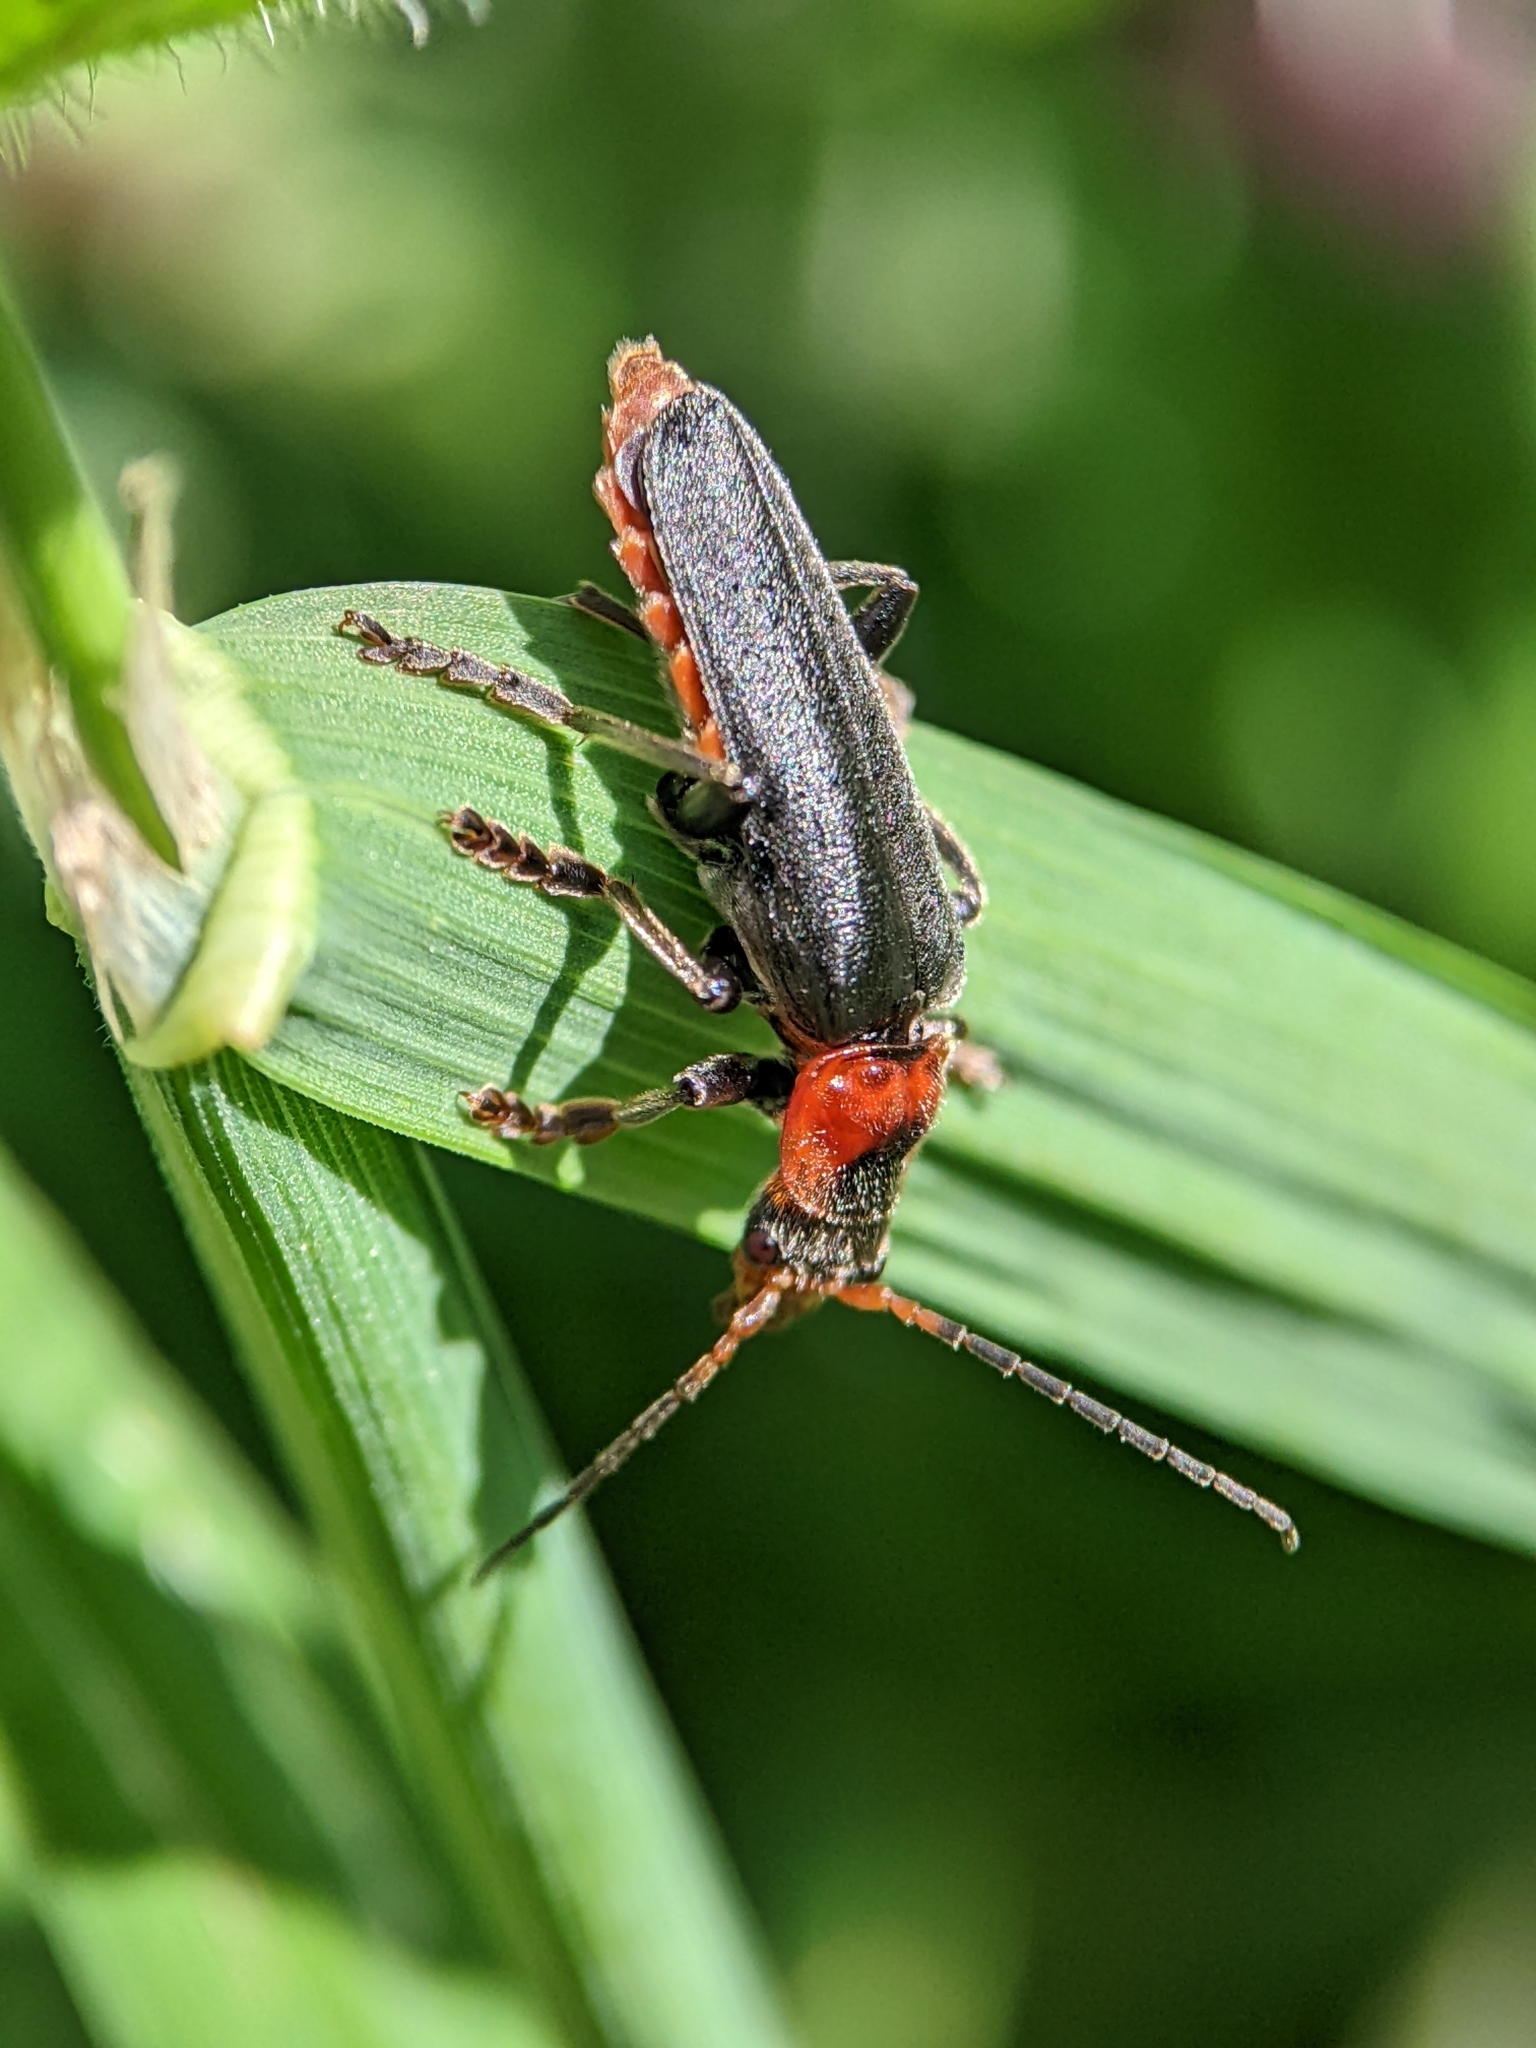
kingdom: Animalia
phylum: Arthropoda
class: Insecta
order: Coleoptera
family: Cantharidae
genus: Cantharis
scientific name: Cantharis fusca
